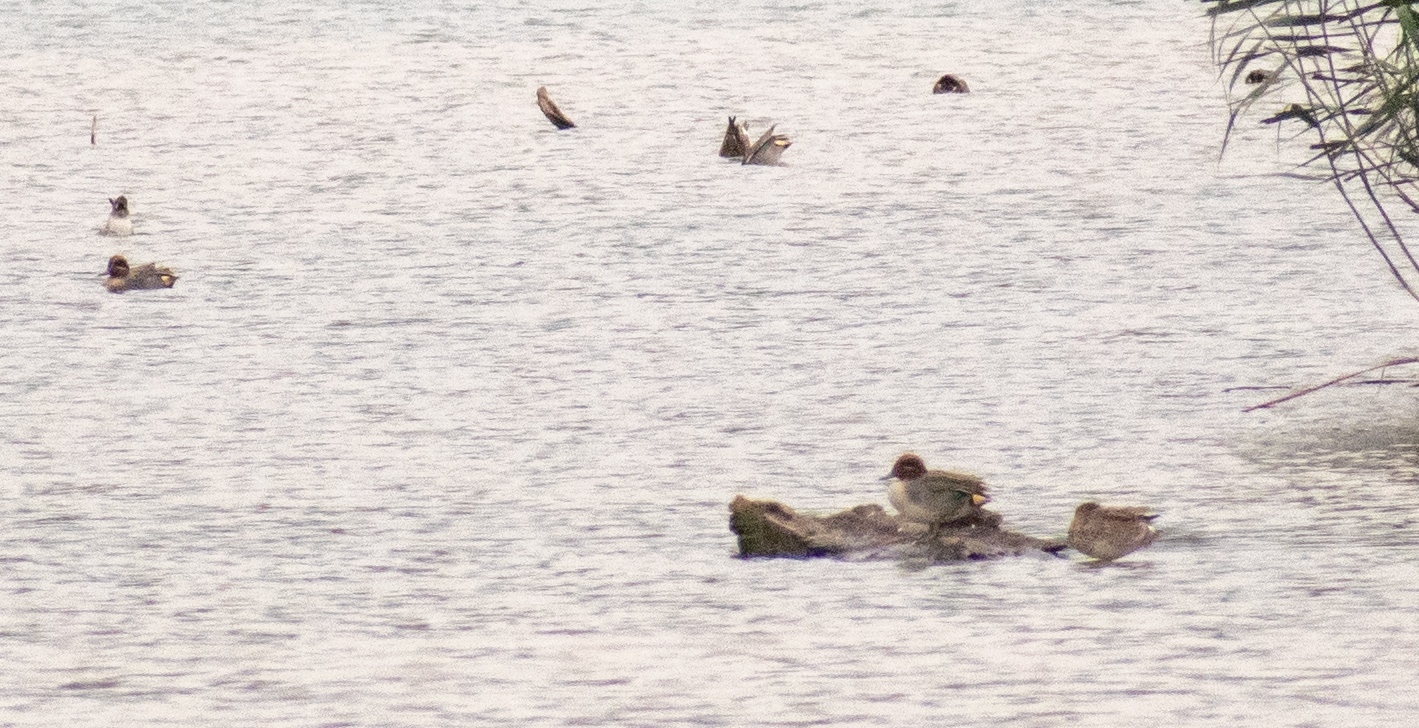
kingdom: Animalia
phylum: Chordata
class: Aves
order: Anseriformes
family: Anatidae
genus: Anas
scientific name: Anas crecca
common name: Eurasian teal
